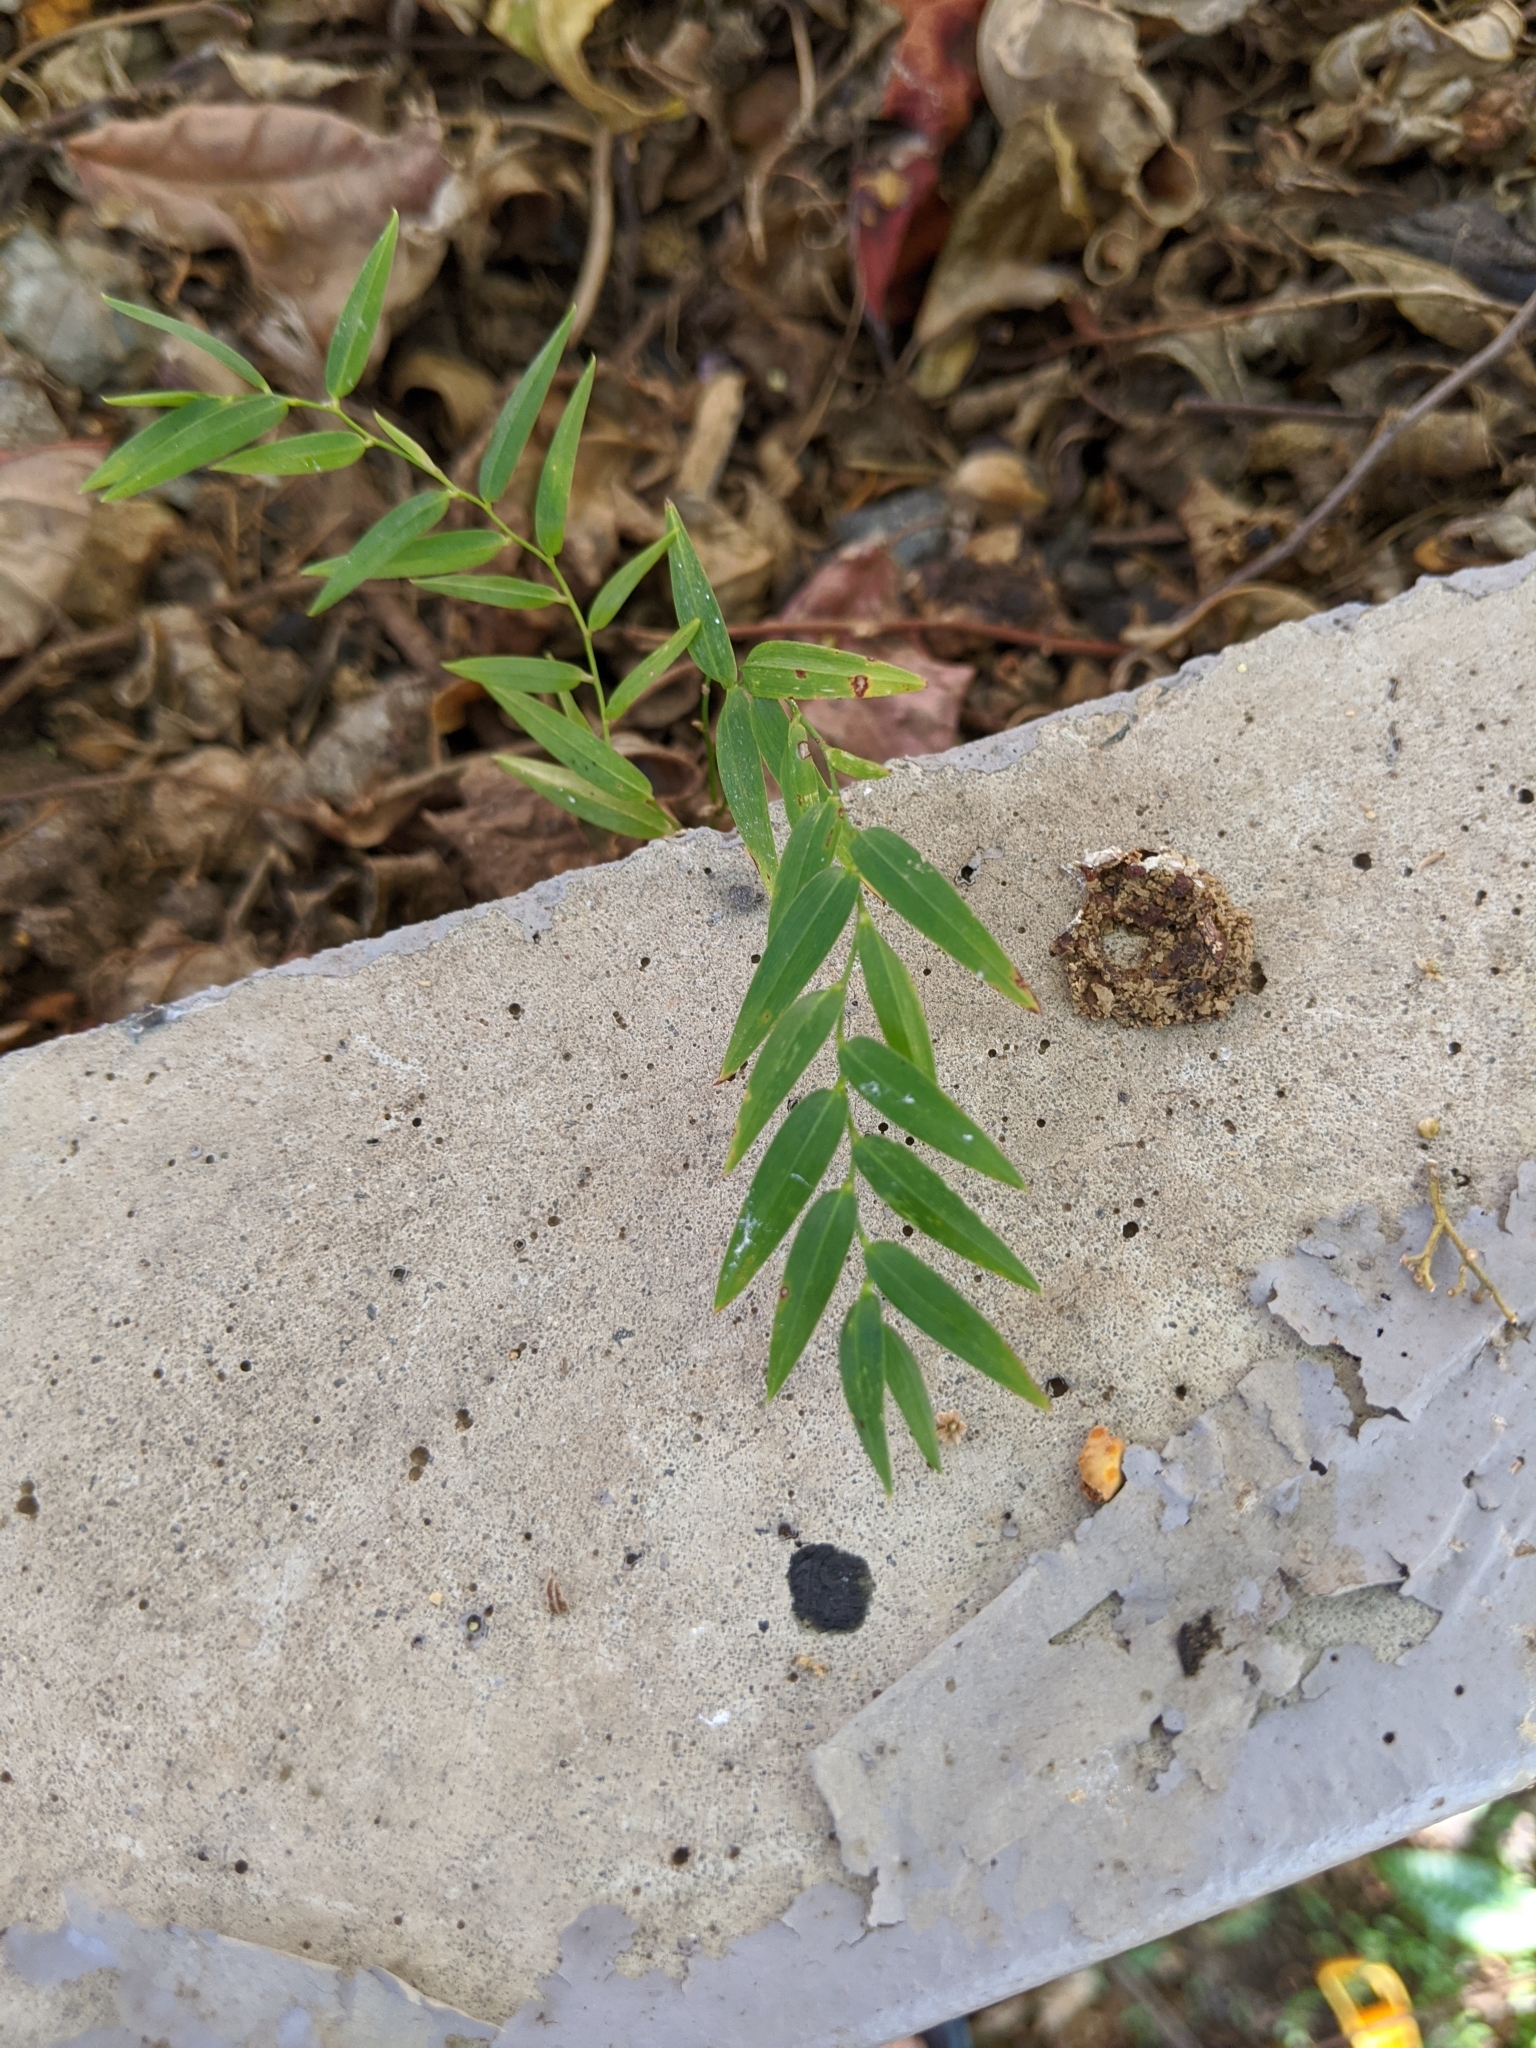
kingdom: Plantae
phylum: Tracheophyta
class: Liliopsida
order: Asparagales
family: Asphodelaceae
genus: Geitonoplesium
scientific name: Geitonoplesium cymosum
